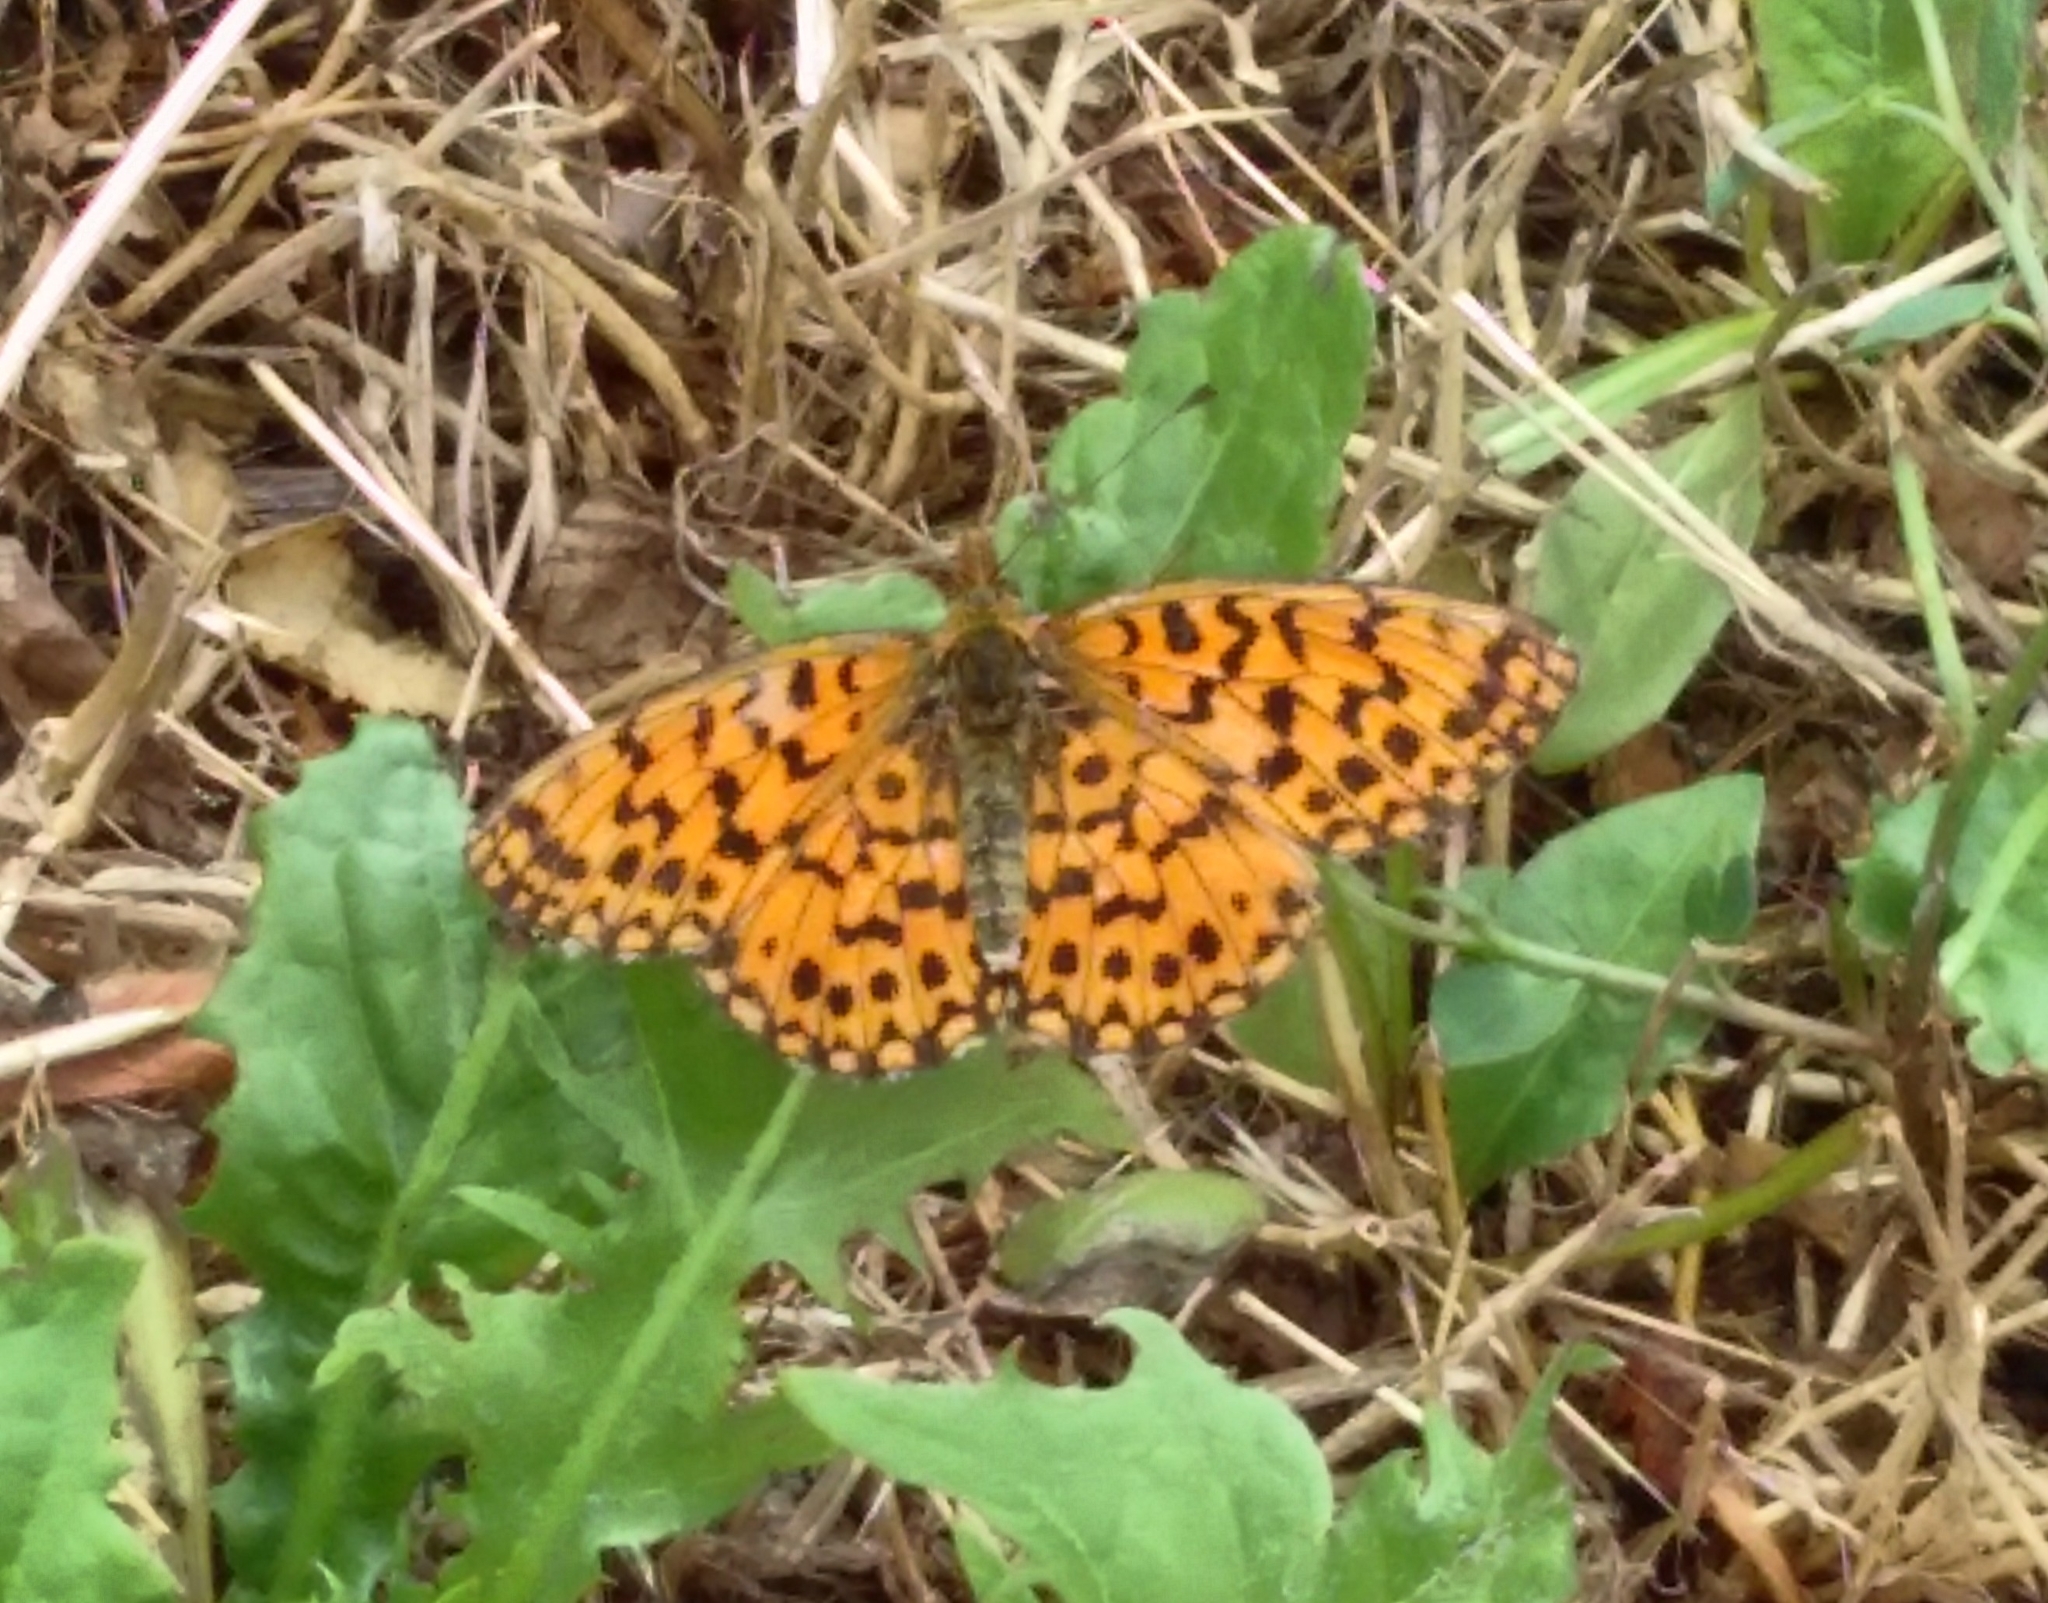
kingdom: Animalia
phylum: Arthropoda
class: Insecta
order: Lepidoptera
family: Nymphalidae
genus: Boloria
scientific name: Boloria dia
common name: Weaver's fritillary
